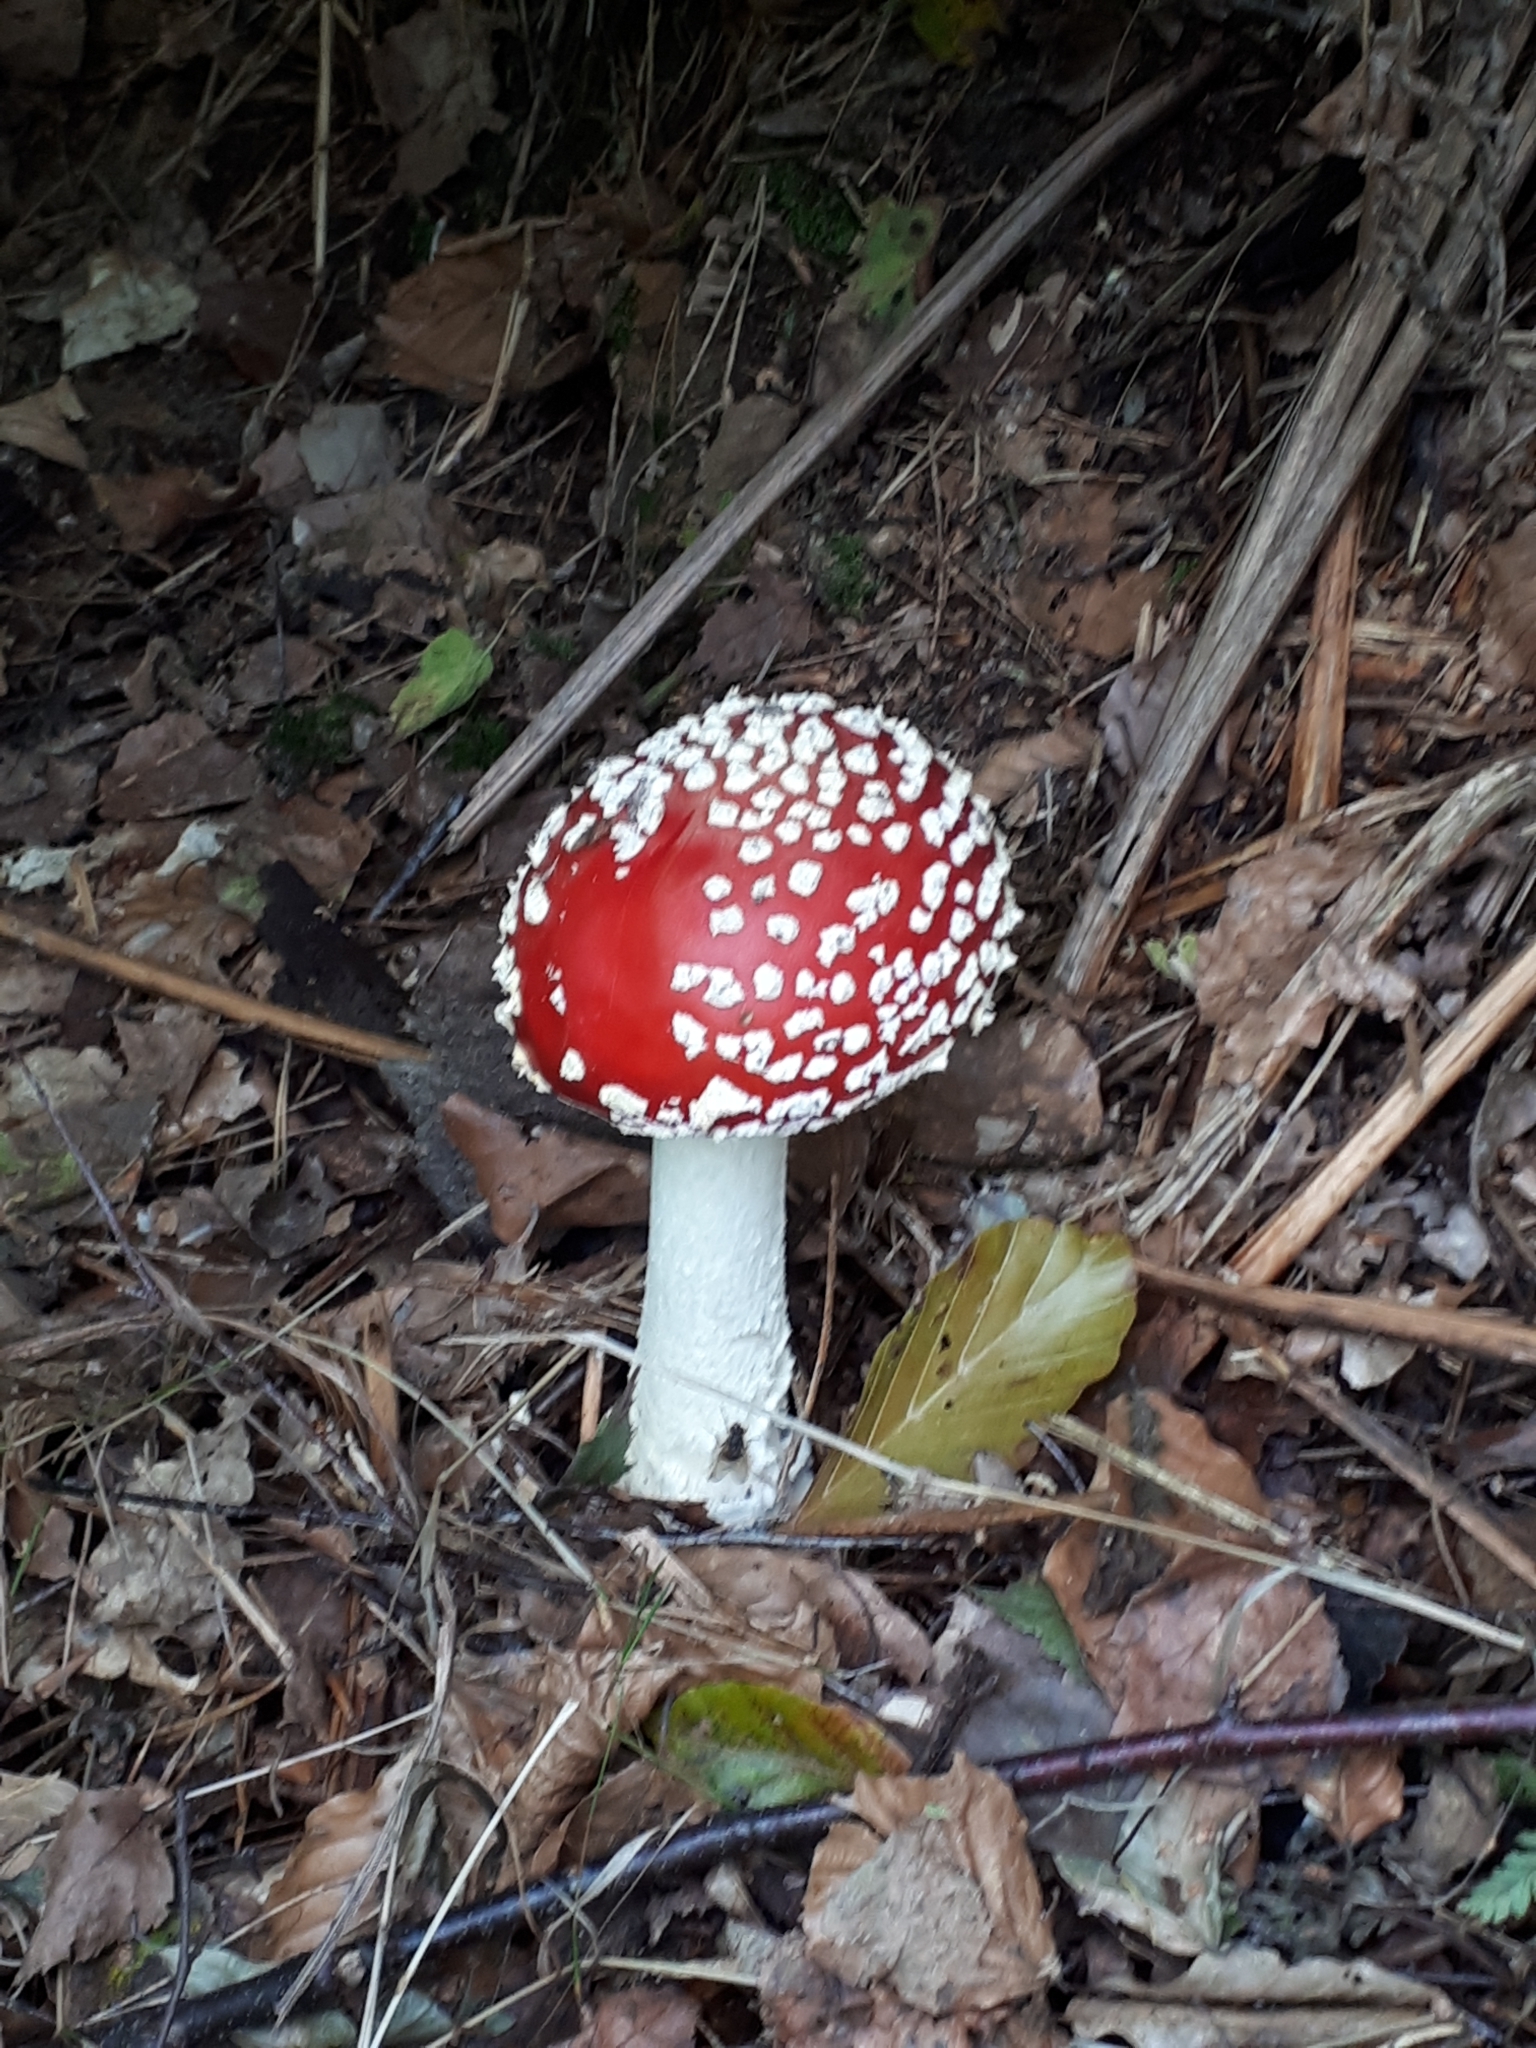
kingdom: Fungi
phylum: Basidiomycota
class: Agaricomycetes
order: Agaricales
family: Amanitaceae
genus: Amanita
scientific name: Amanita muscaria
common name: Fly agaric
